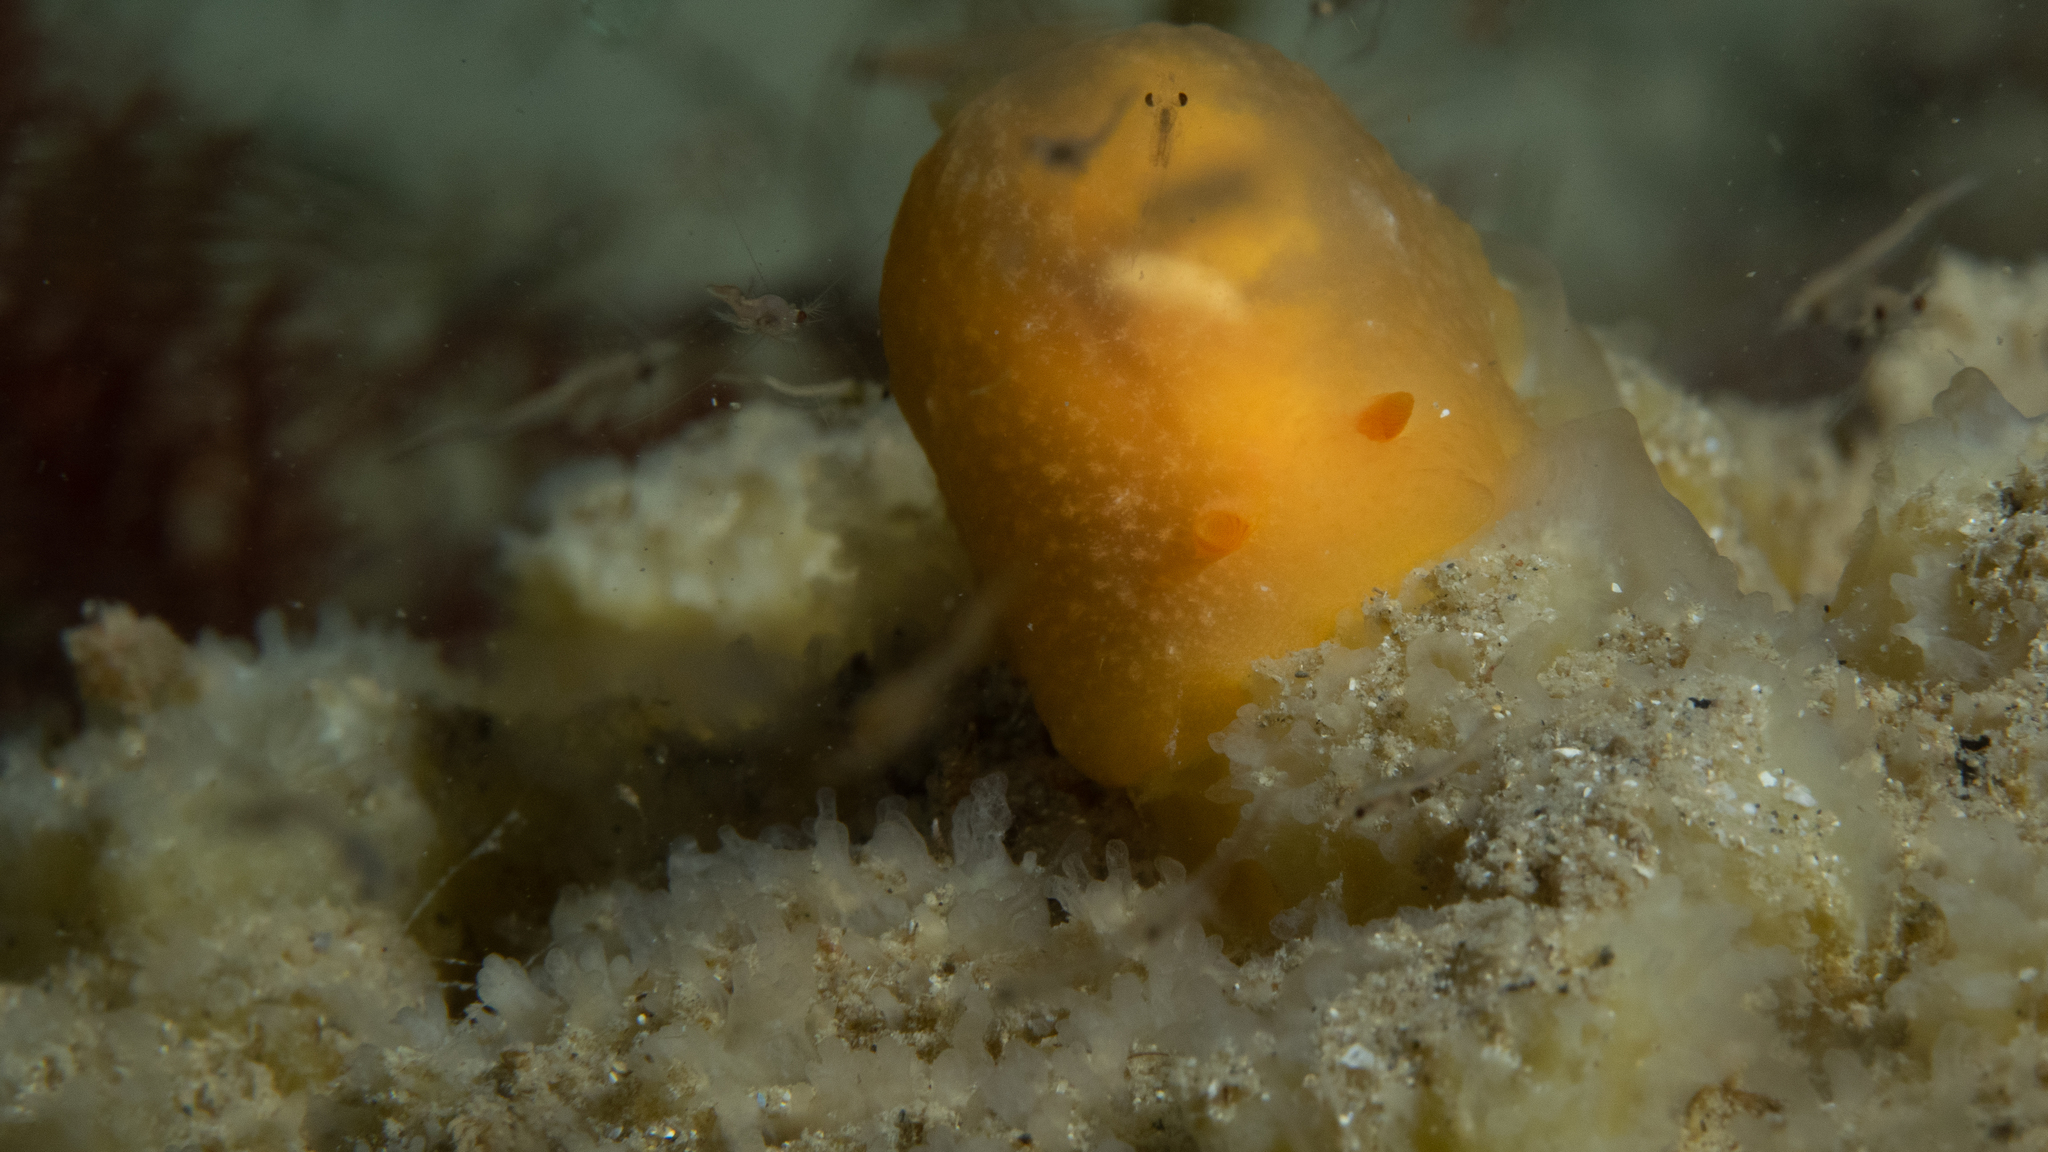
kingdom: Animalia
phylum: Mollusca
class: Gastropoda
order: Nudibranchia
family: Dendrodorididae
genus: Doriopsilla
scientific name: Doriopsilla carneola
